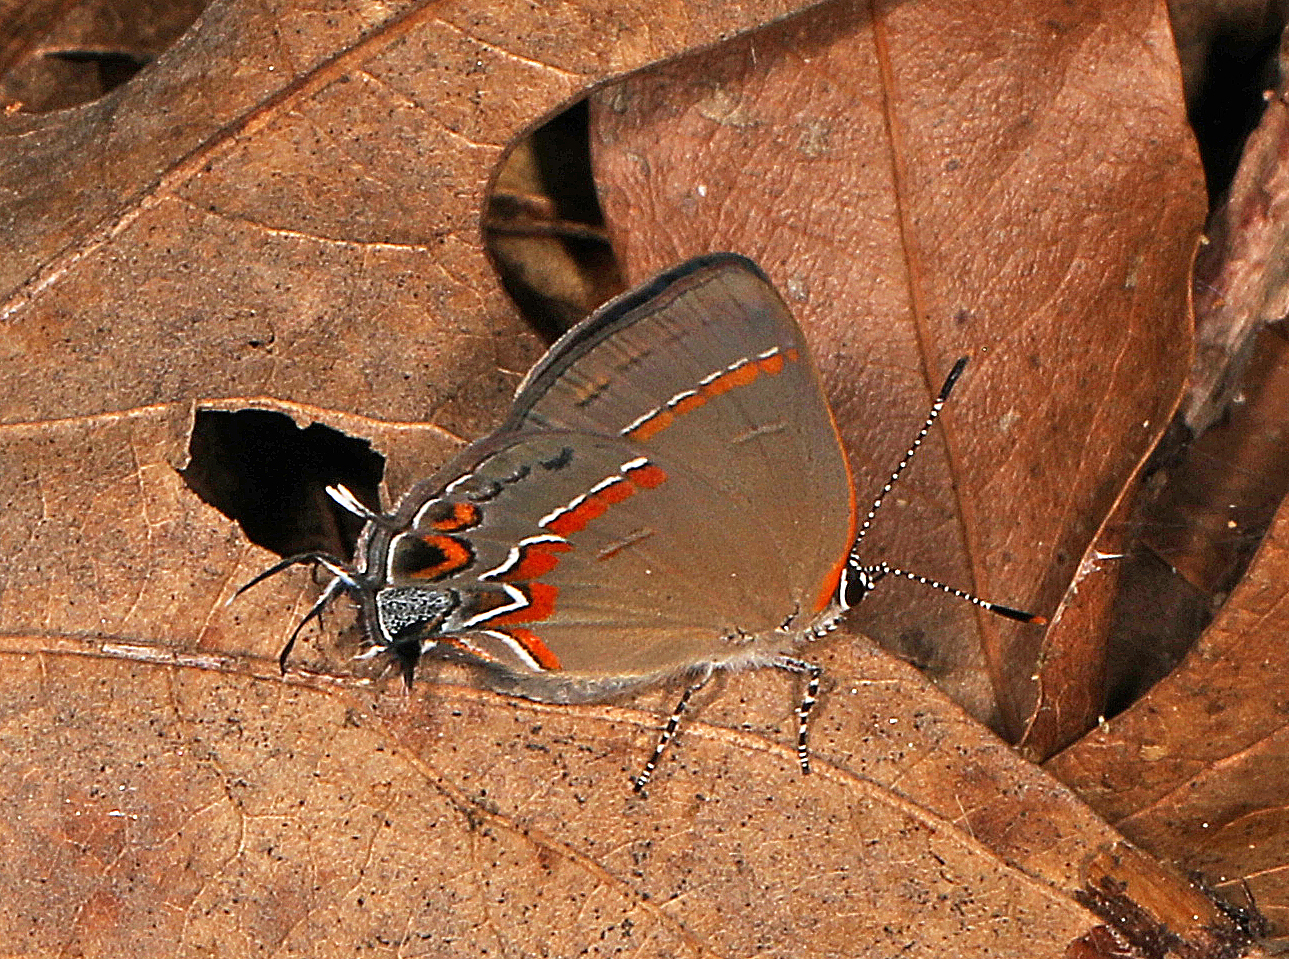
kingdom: Animalia
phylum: Arthropoda
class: Insecta
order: Lepidoptera
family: Lycaenidae
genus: Calycopis
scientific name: Calycopis cecrops
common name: Red-banded hairstreak
